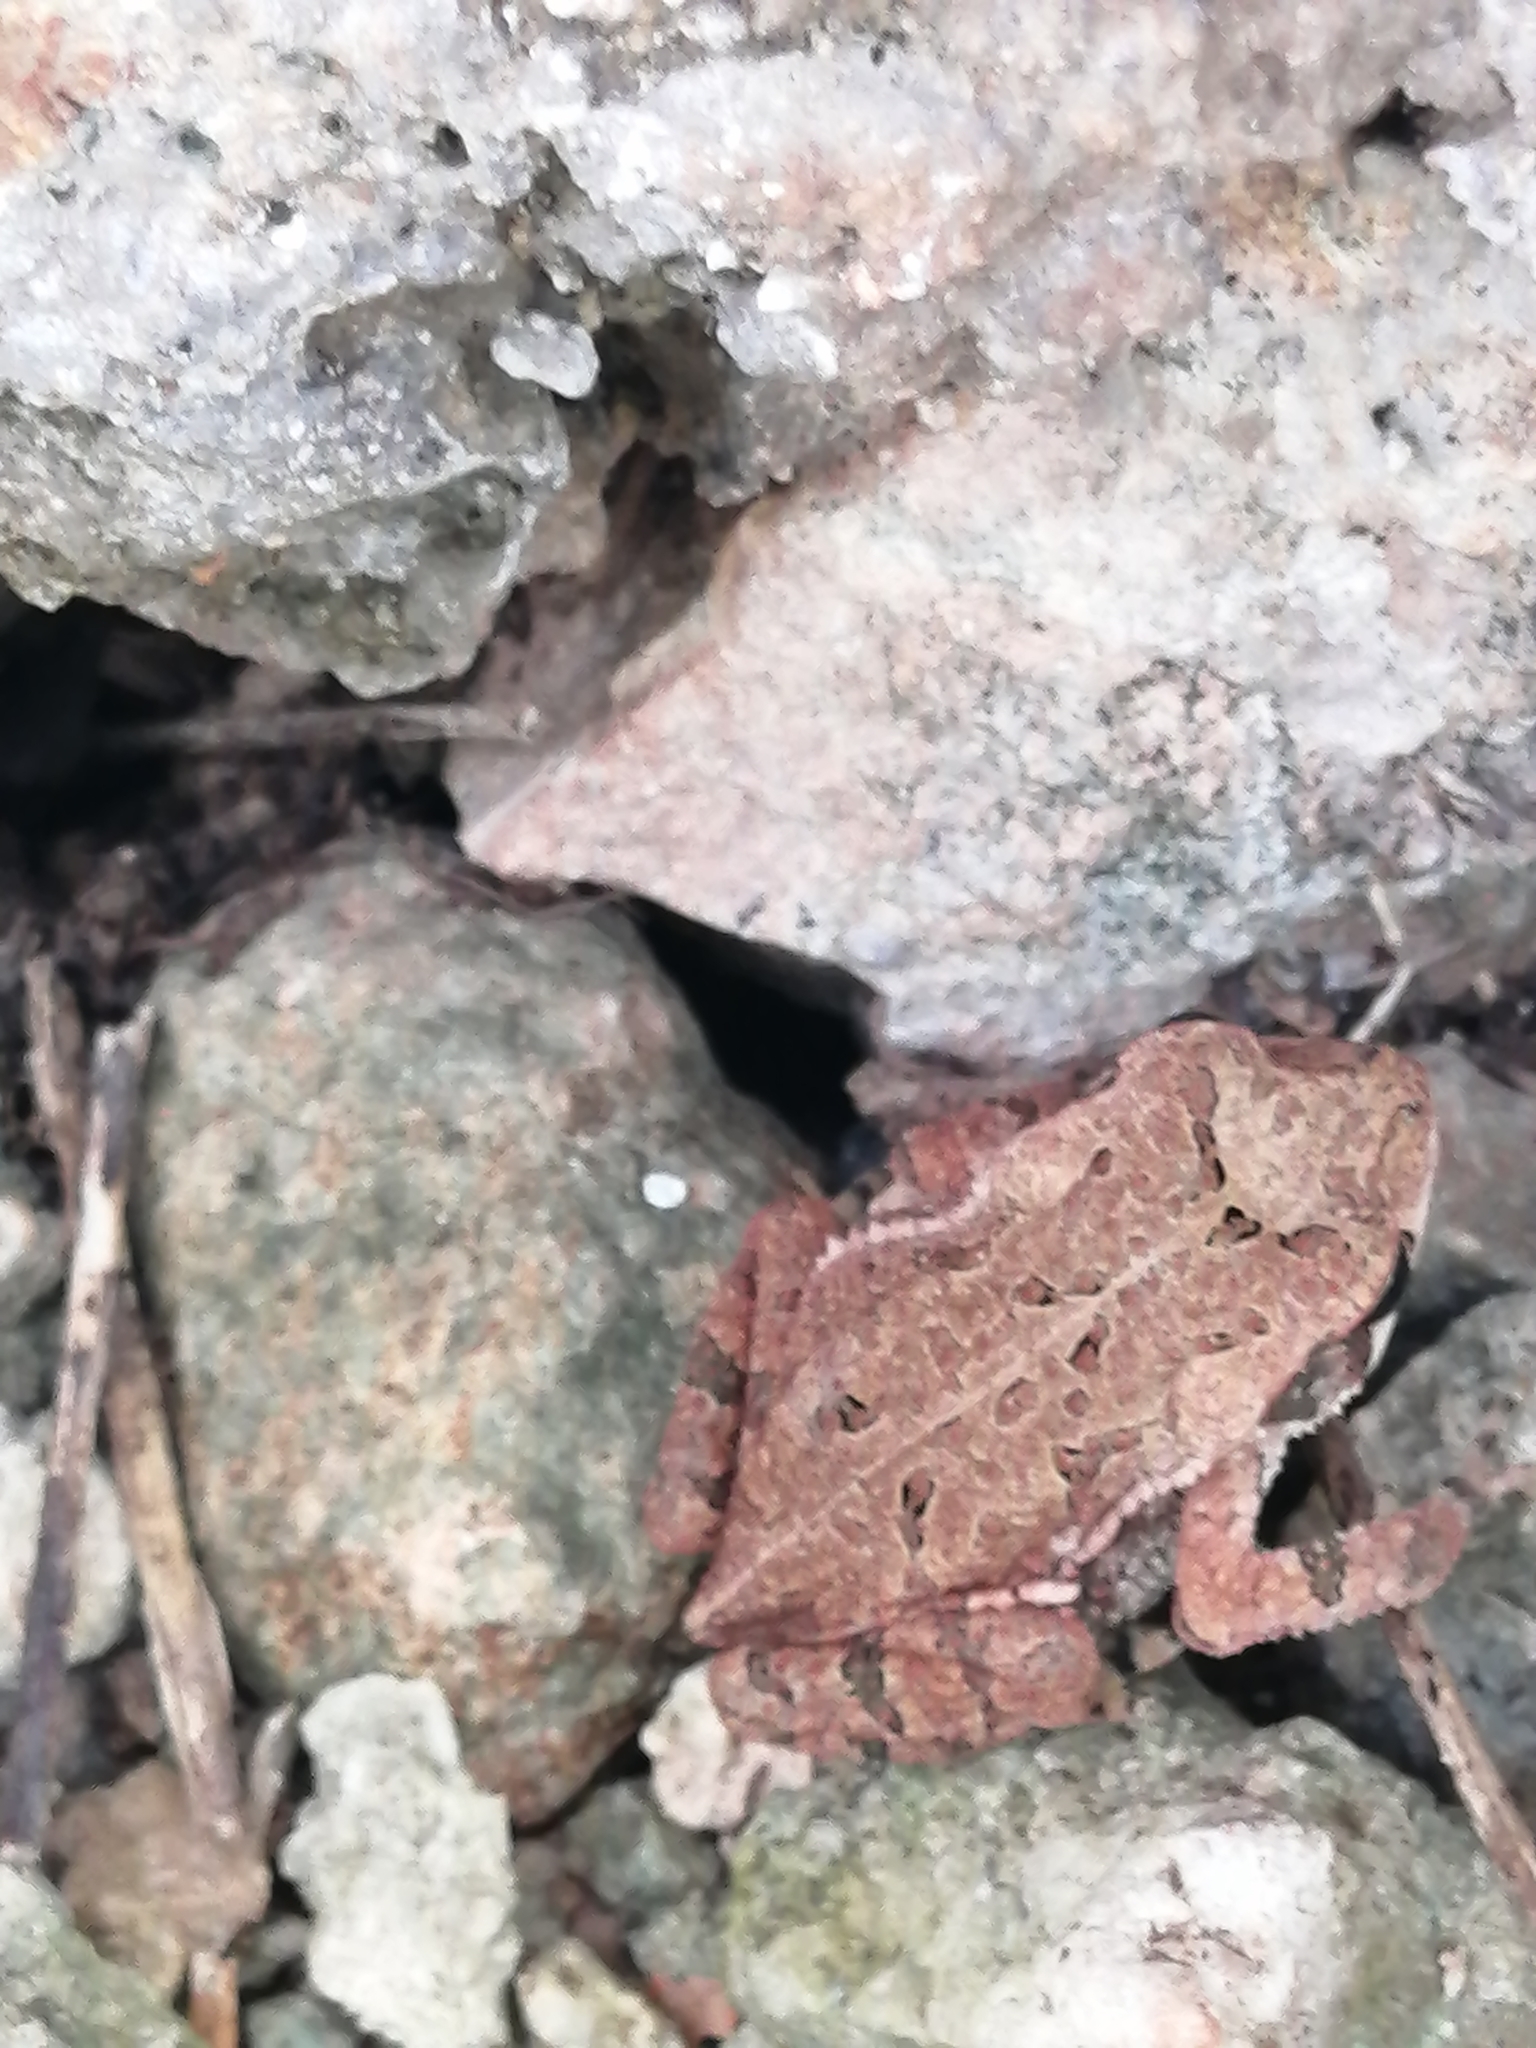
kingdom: Animalia
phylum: Chordata
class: Amphibia
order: Anura
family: Bufonidae
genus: Incilius
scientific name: Incilius valliceps
